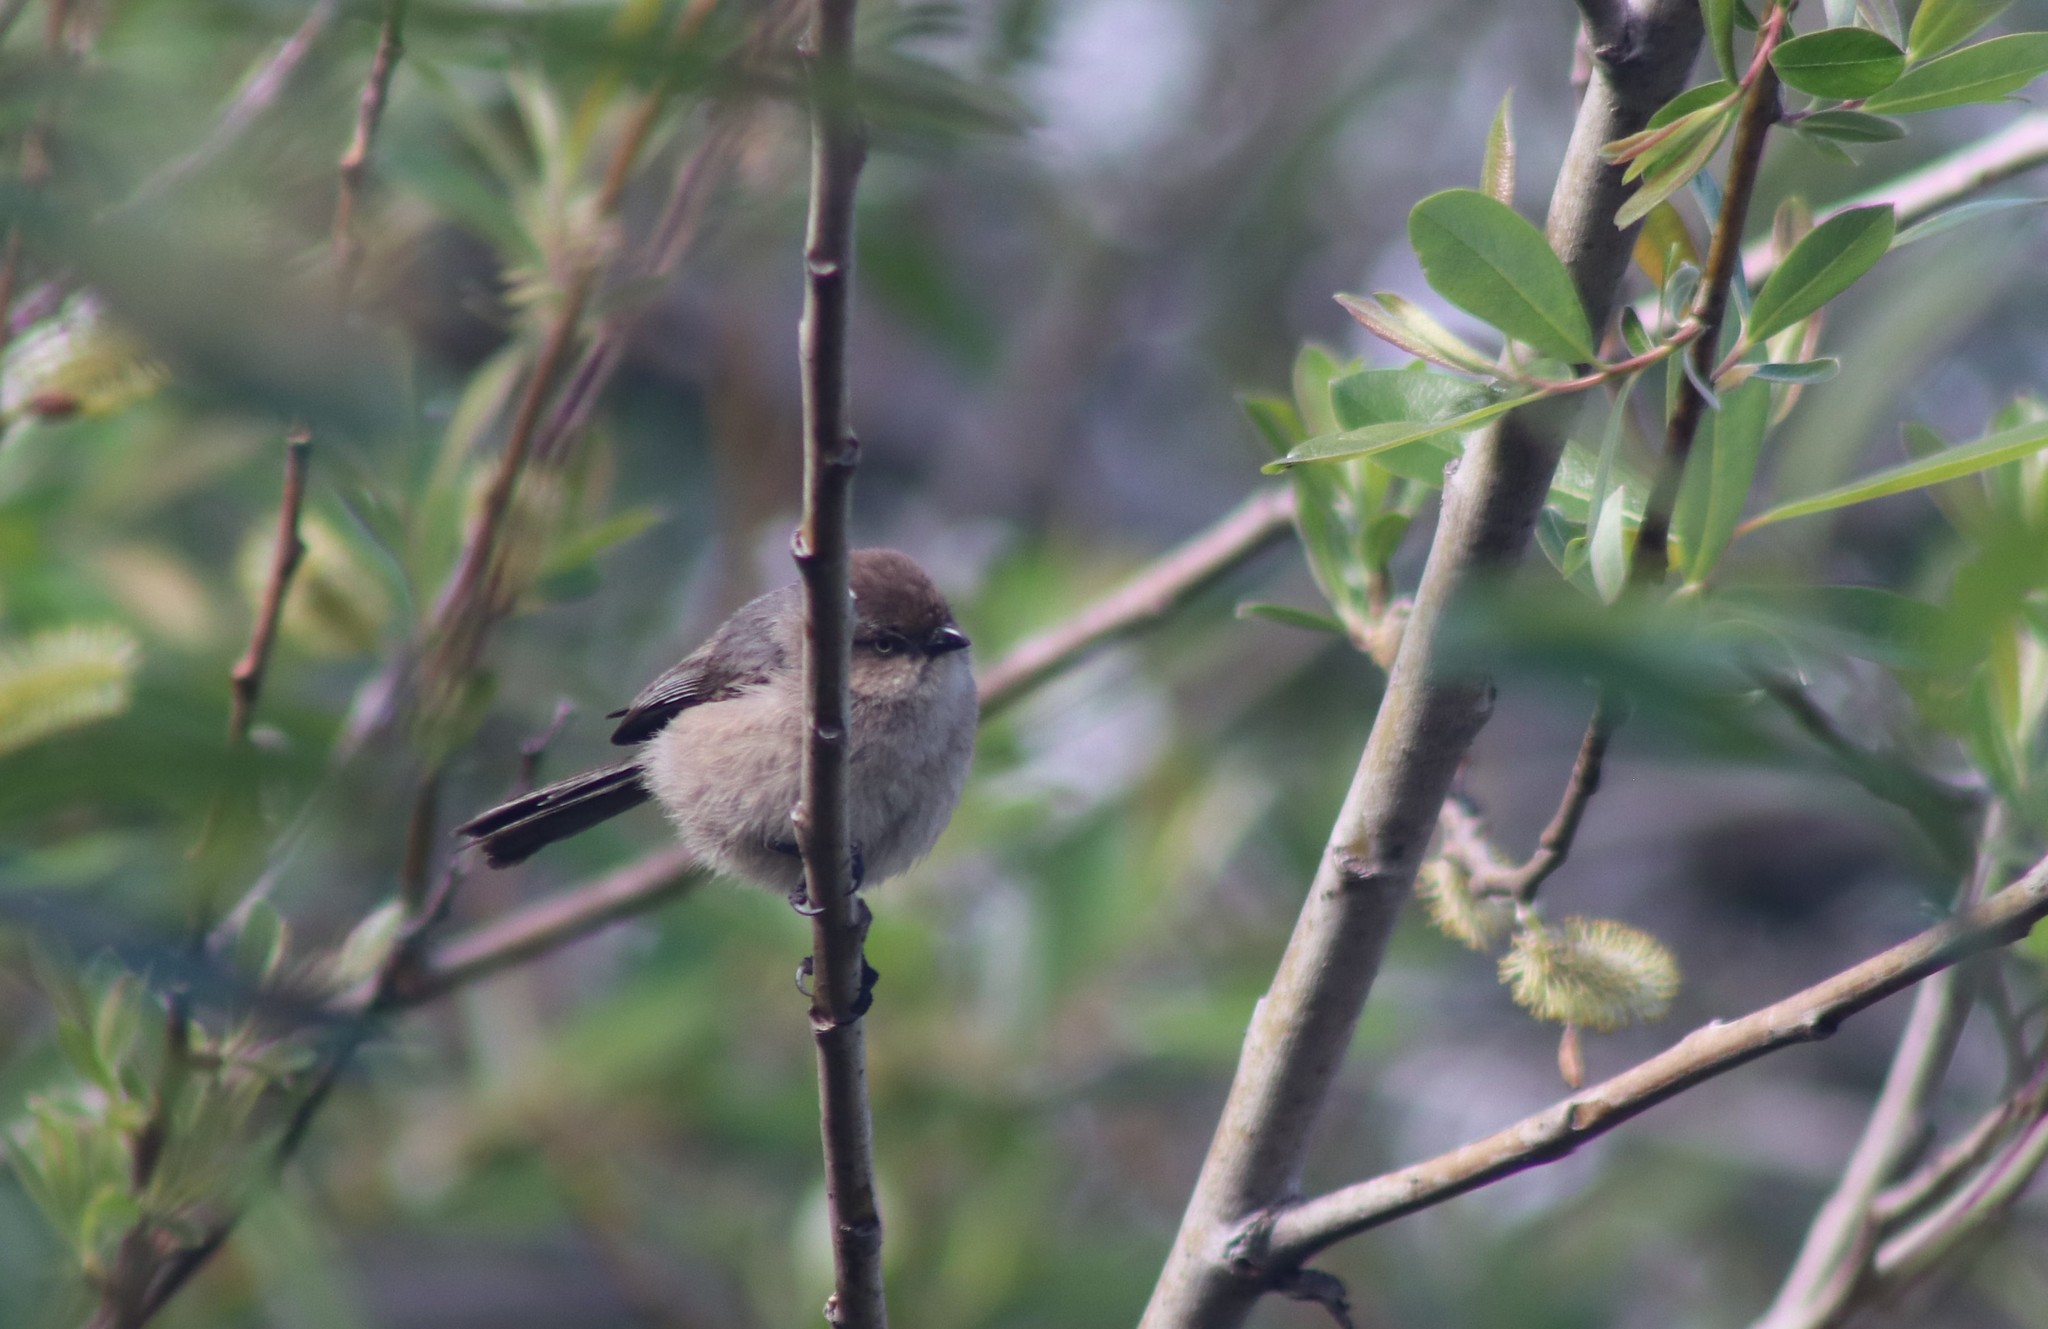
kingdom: Animalia
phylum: Chordata
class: Aves
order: Passeriformes
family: Aegithalidae
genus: Psaltriparus
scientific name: Psaltriparus minimus
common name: American bushtit
